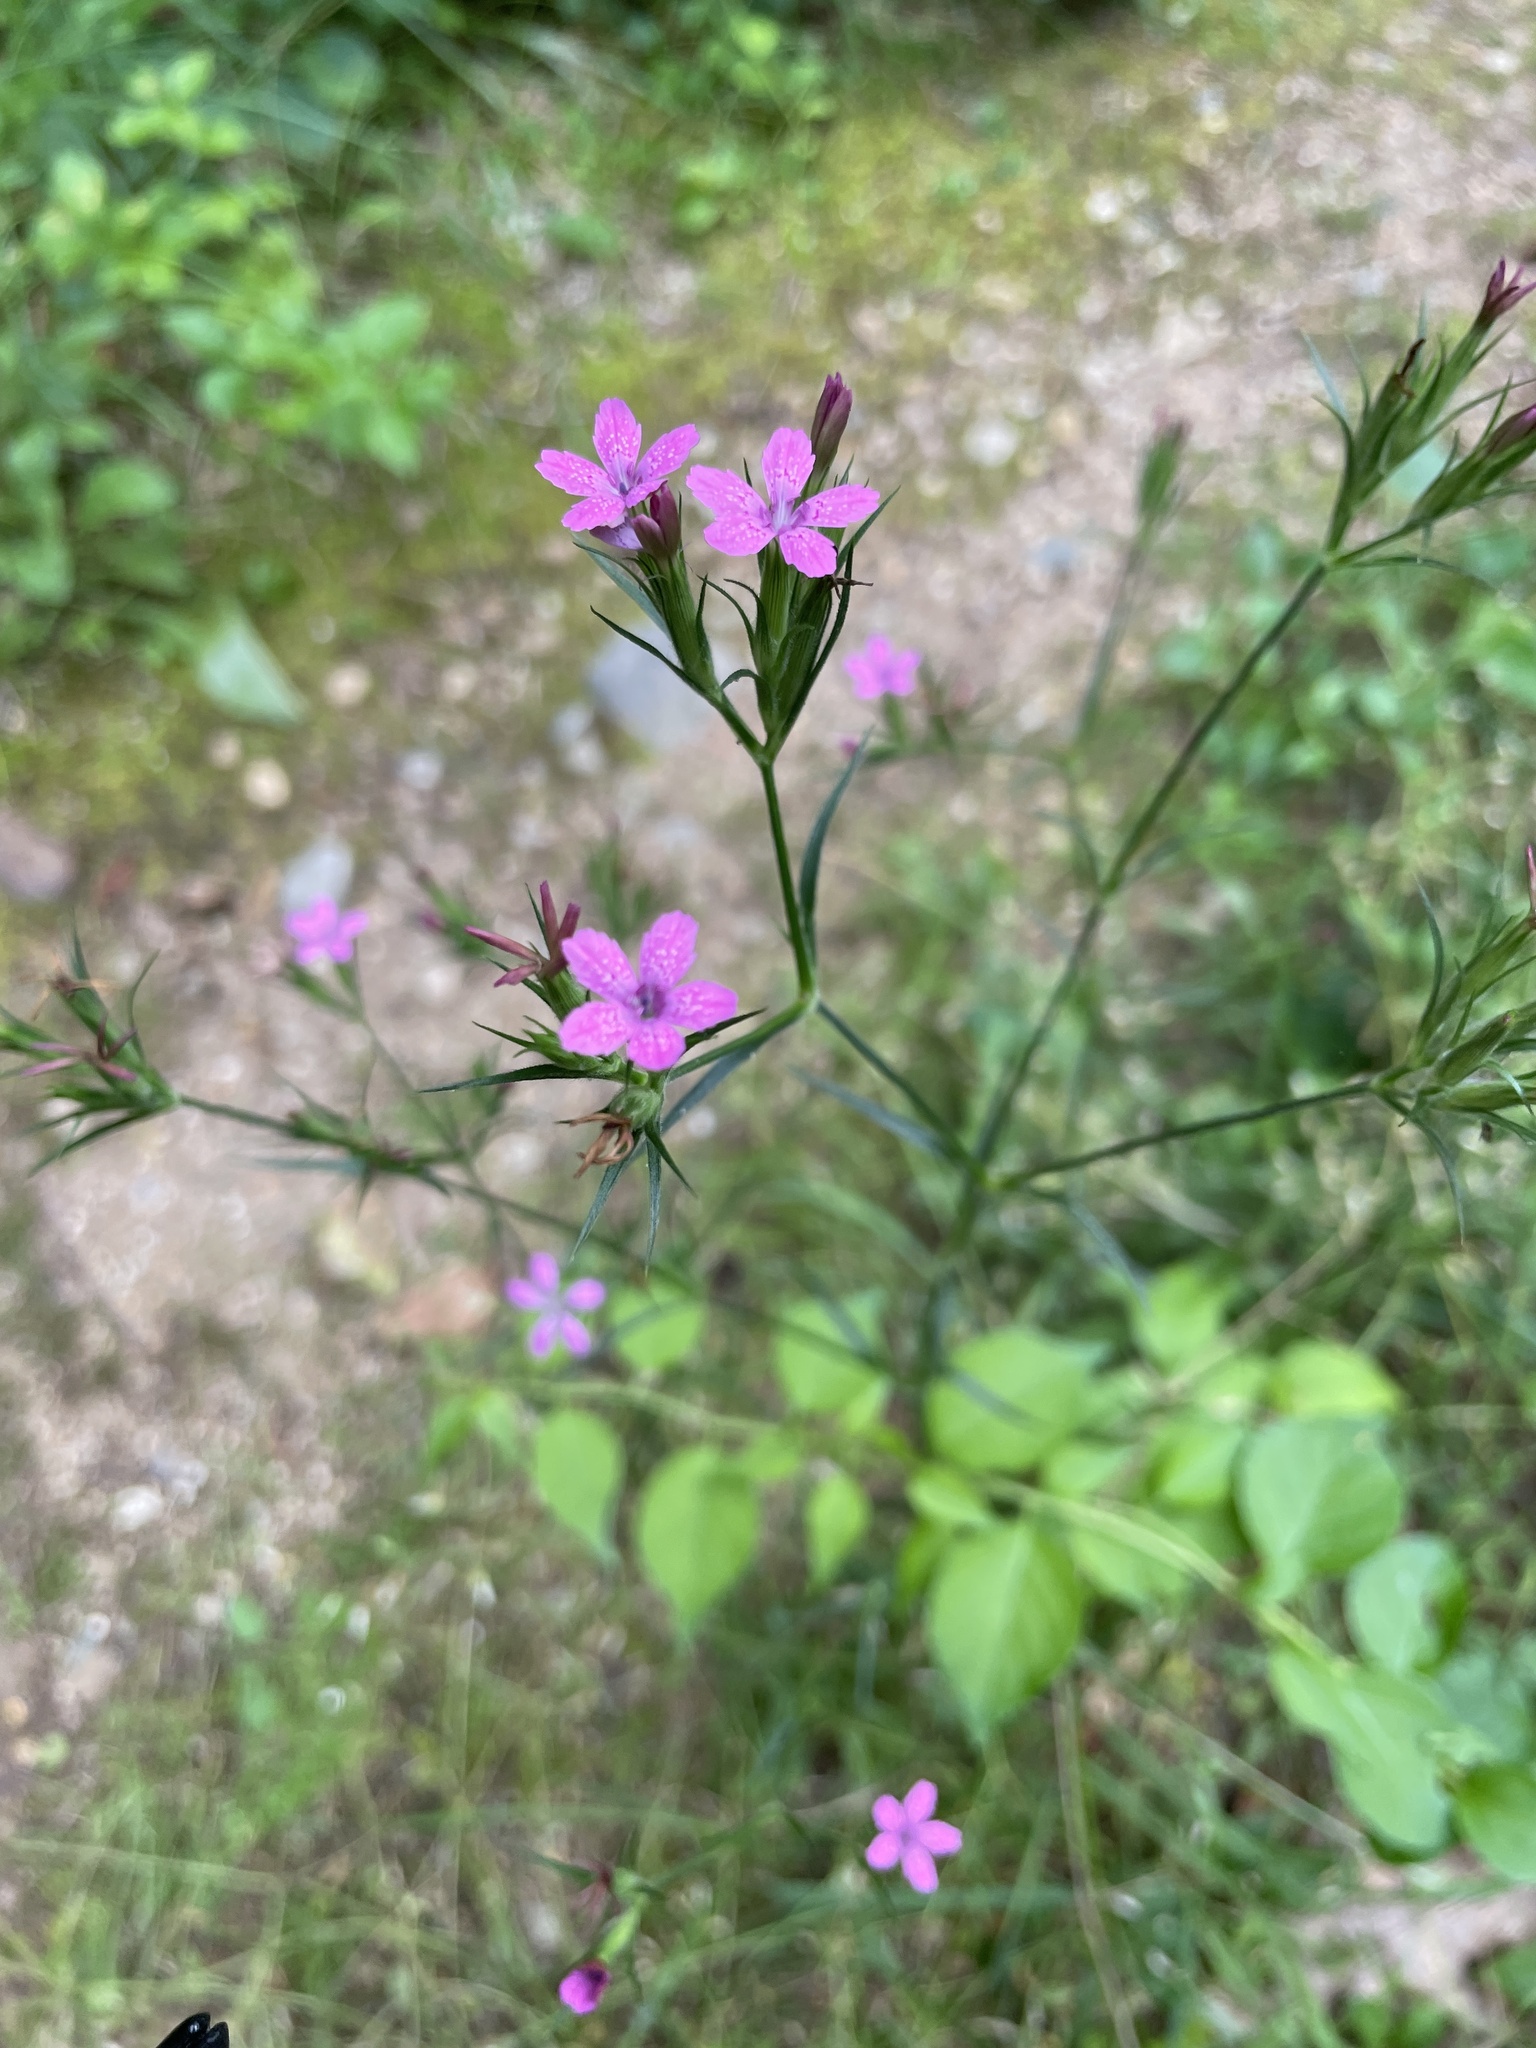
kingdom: Plantae
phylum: Tracheophyta
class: Magnoliopsida
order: Caryophyllales
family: Caryophyllaceae
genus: Dianthus
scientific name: Dianthus armeria
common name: Deptford pink
